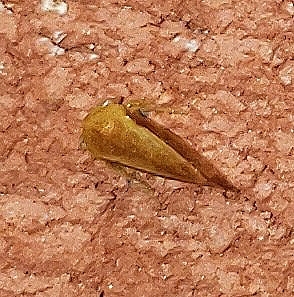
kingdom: Animalia
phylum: Arthropoda
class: Insecta
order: Hemiptera
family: Membracidae
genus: Atymna
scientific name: Atymna castaneae
